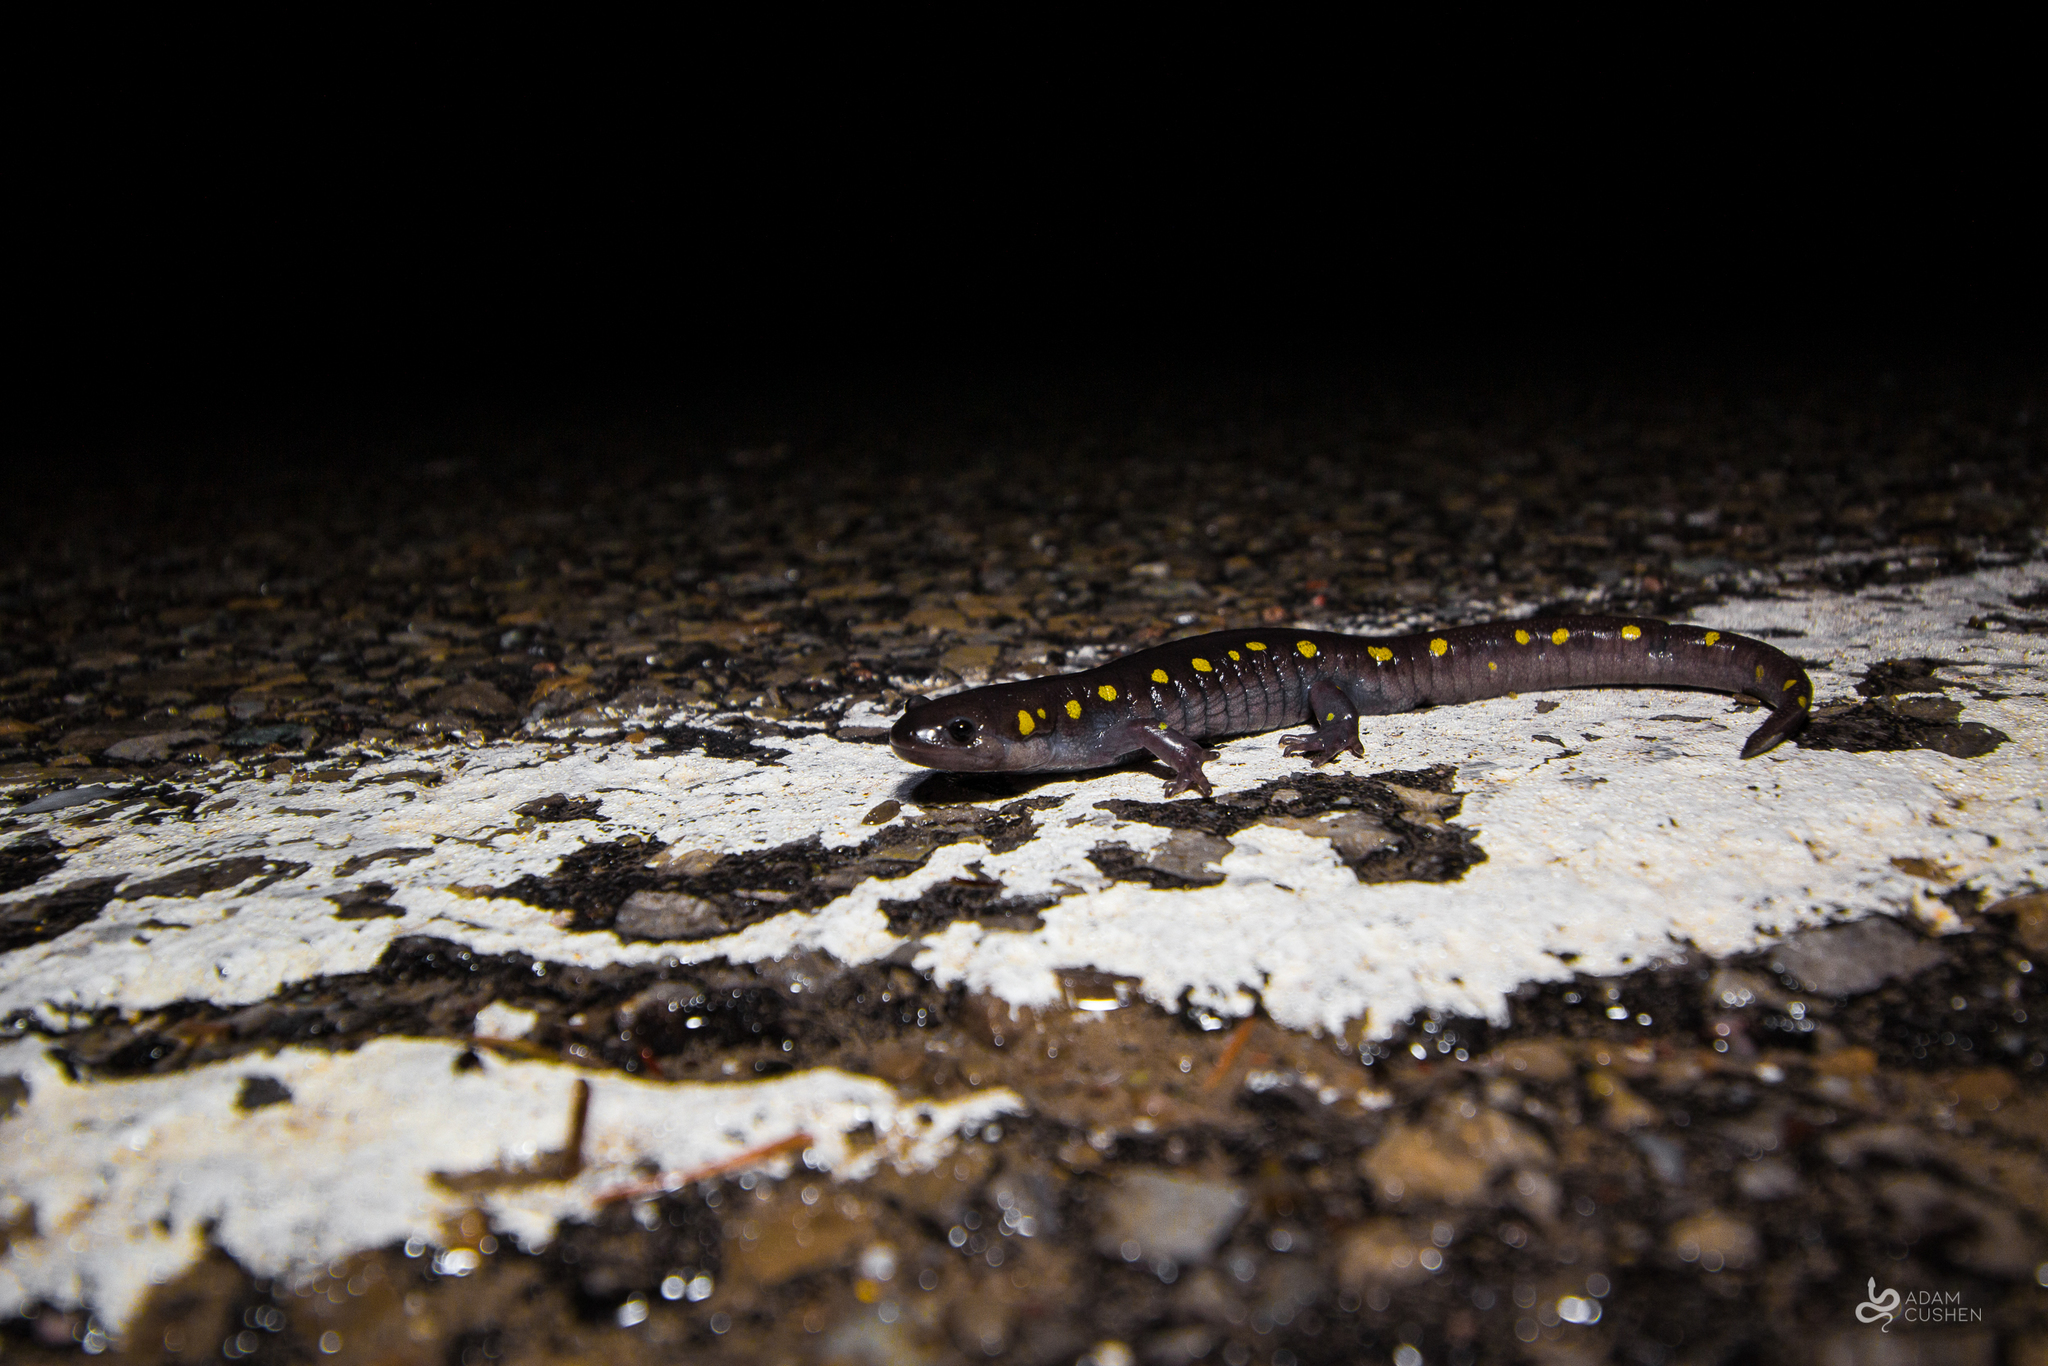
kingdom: Animalia
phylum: Chordata
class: Amphibia
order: Caudata
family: Ambystomatidae
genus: Ambystoma
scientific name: Ambystoma maculatum
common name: Spotted salamander
